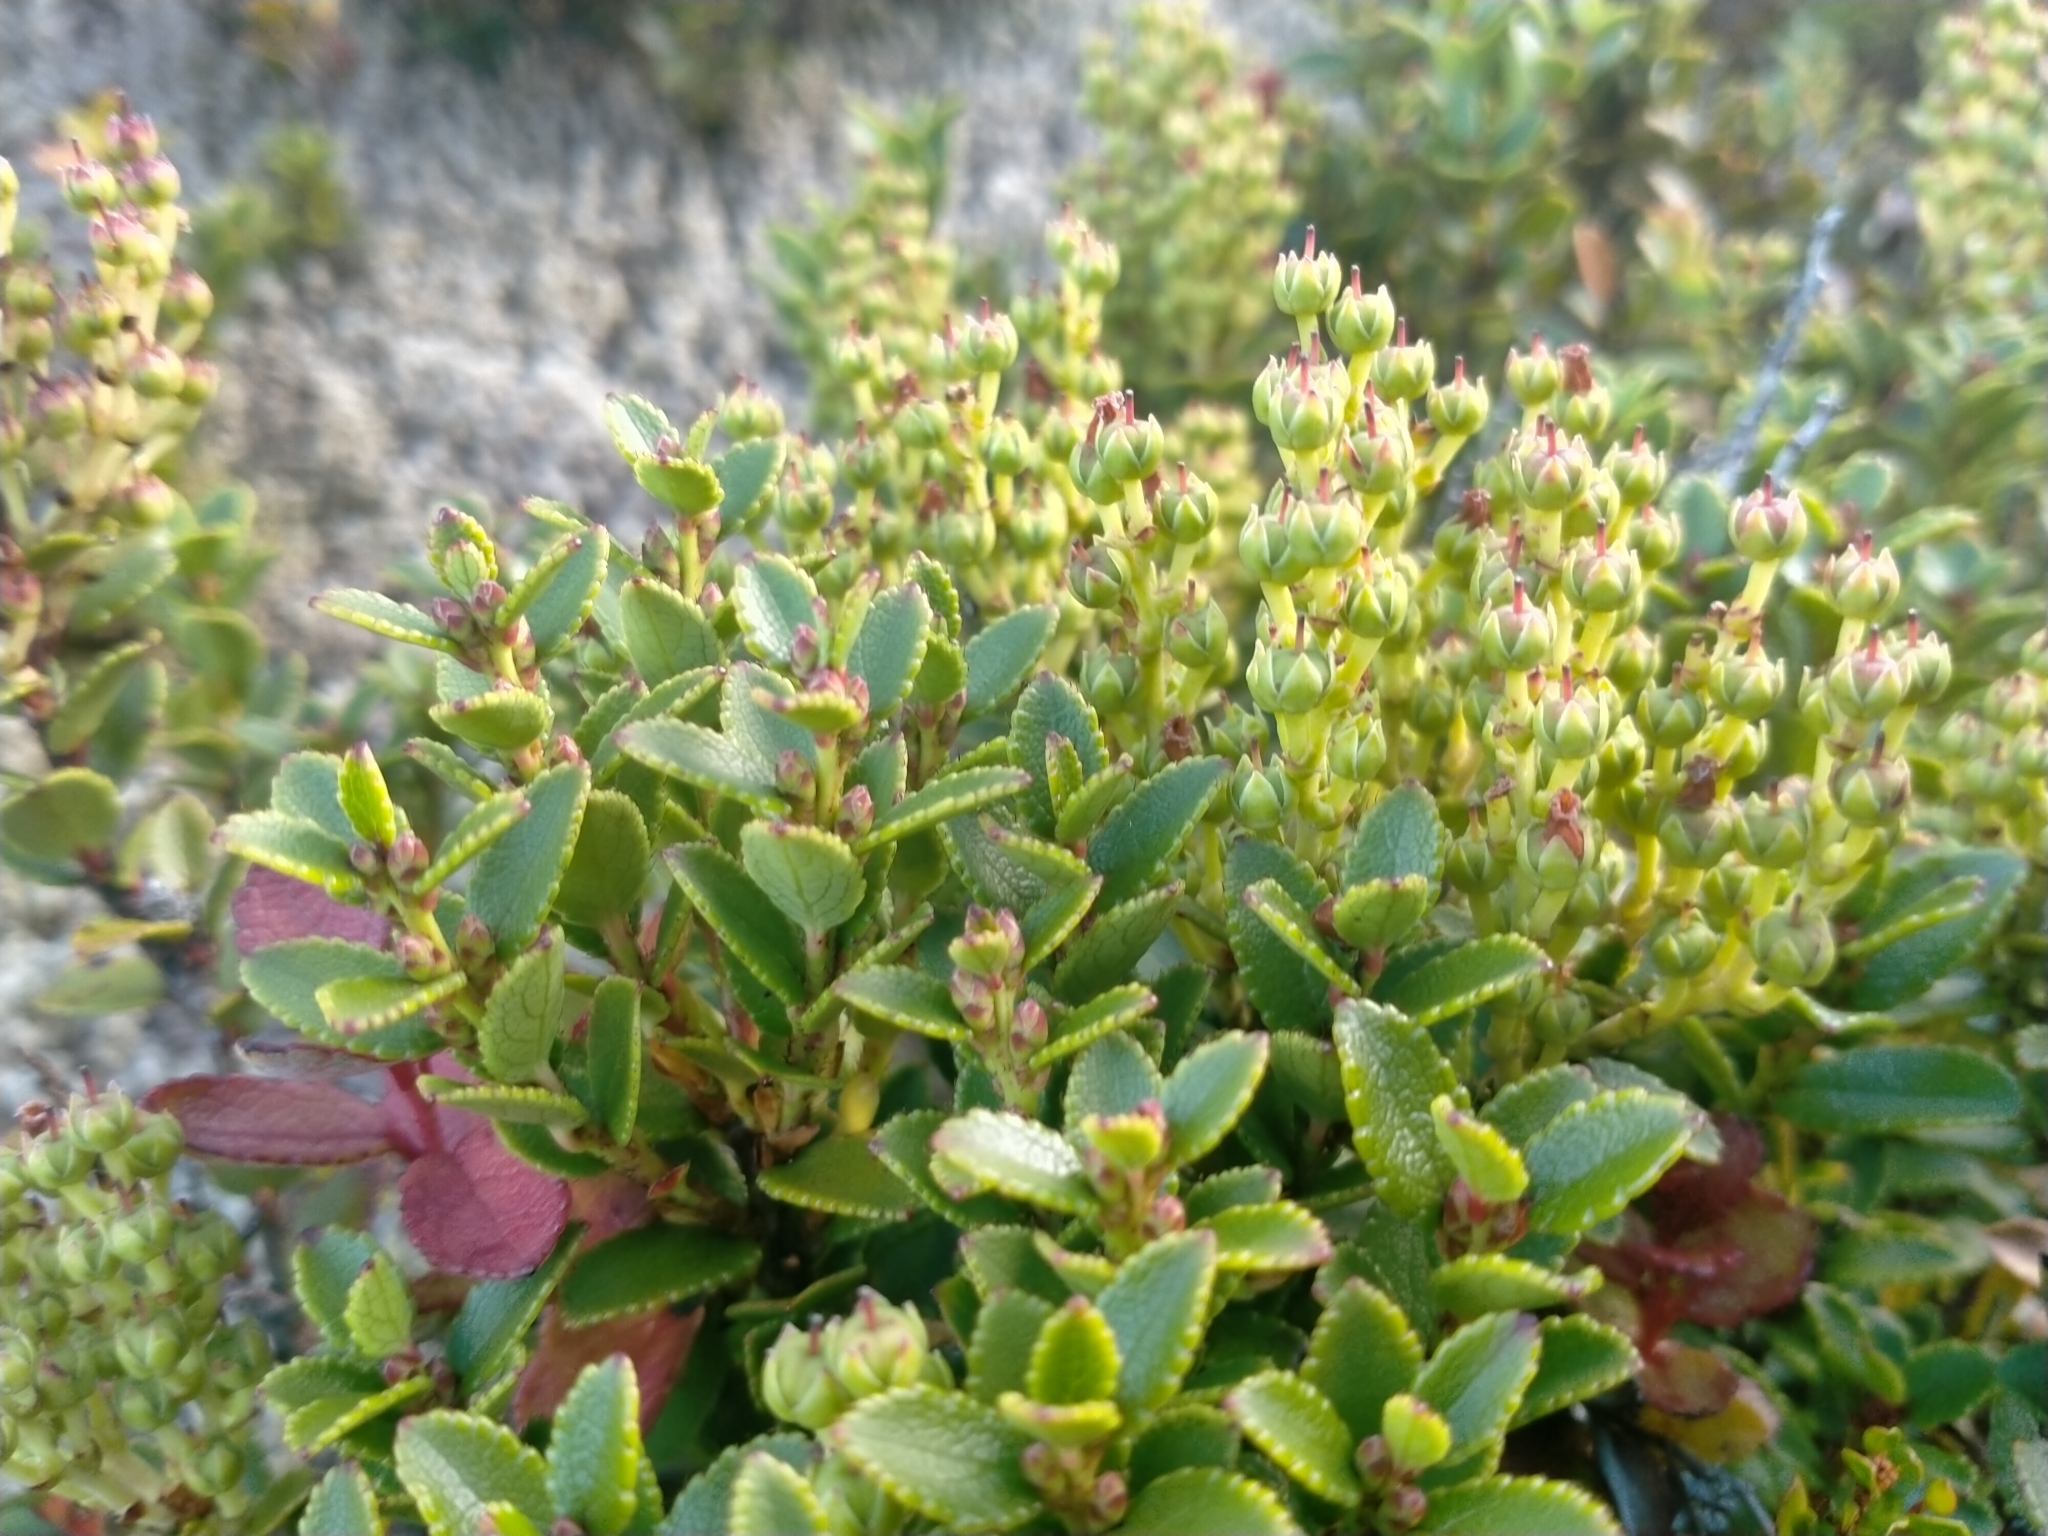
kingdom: Plantae
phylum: Tracheophyta
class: Magnoliopsida
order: Ericales
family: Ericaceae
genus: Gaultheria
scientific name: Gaultheria crassa
